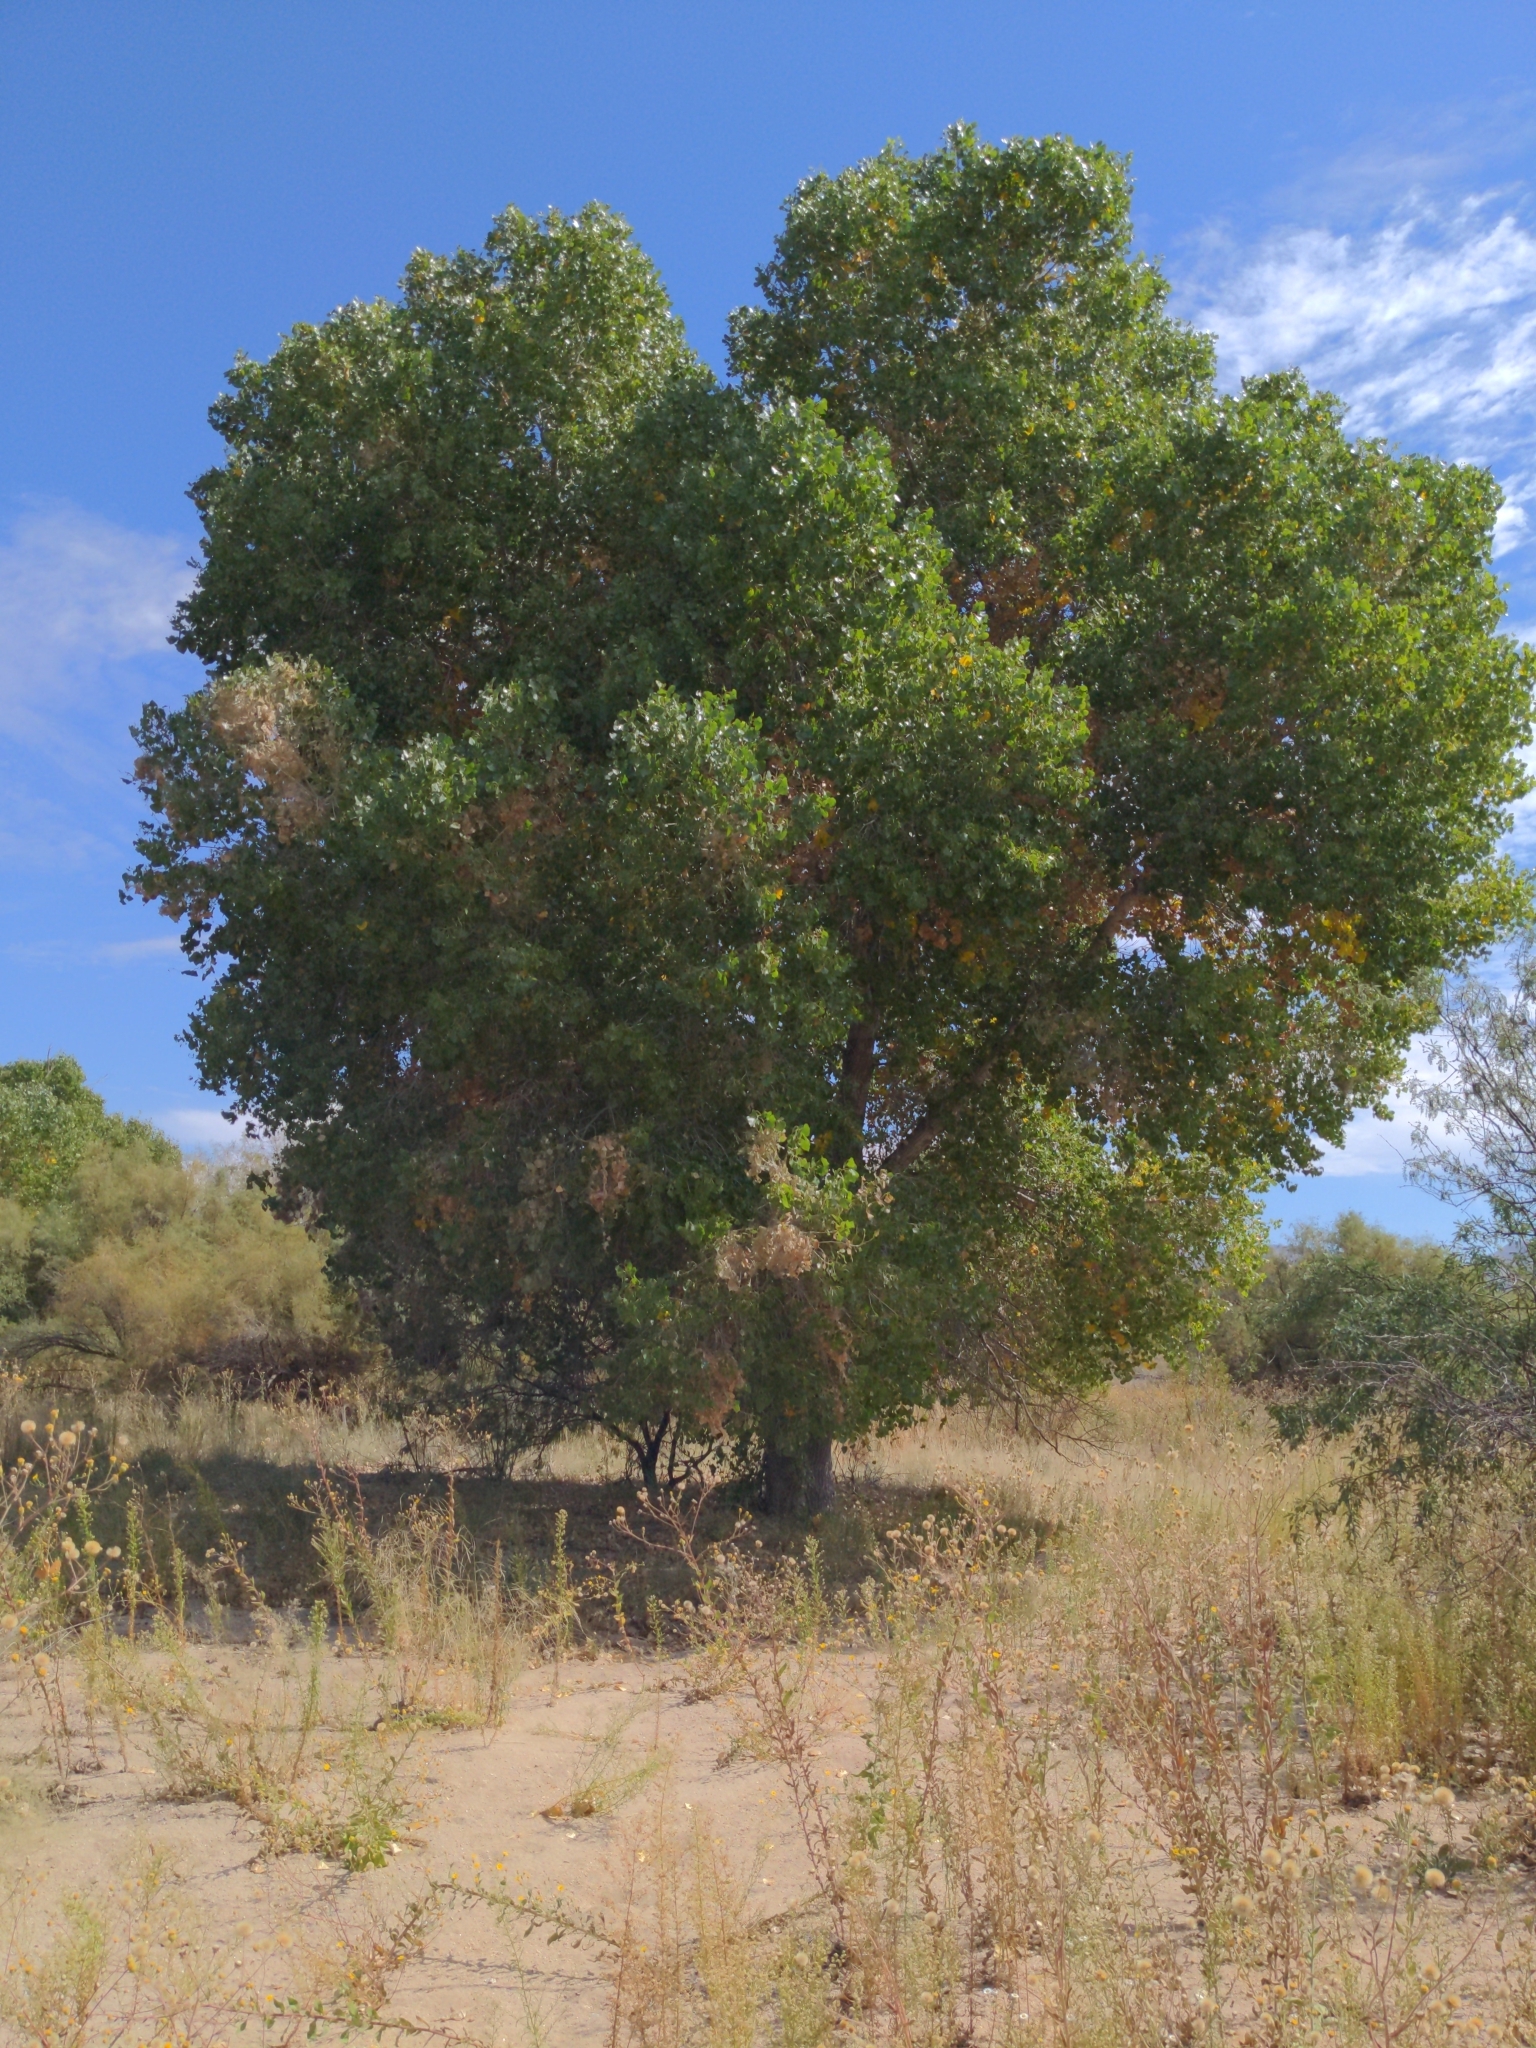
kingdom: Plantae
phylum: Tracheophyta
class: Magnoliopsida
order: Malpighiales
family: Salicaceae
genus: Populus
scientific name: Populus fremontii
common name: Fremont's cottonwood
